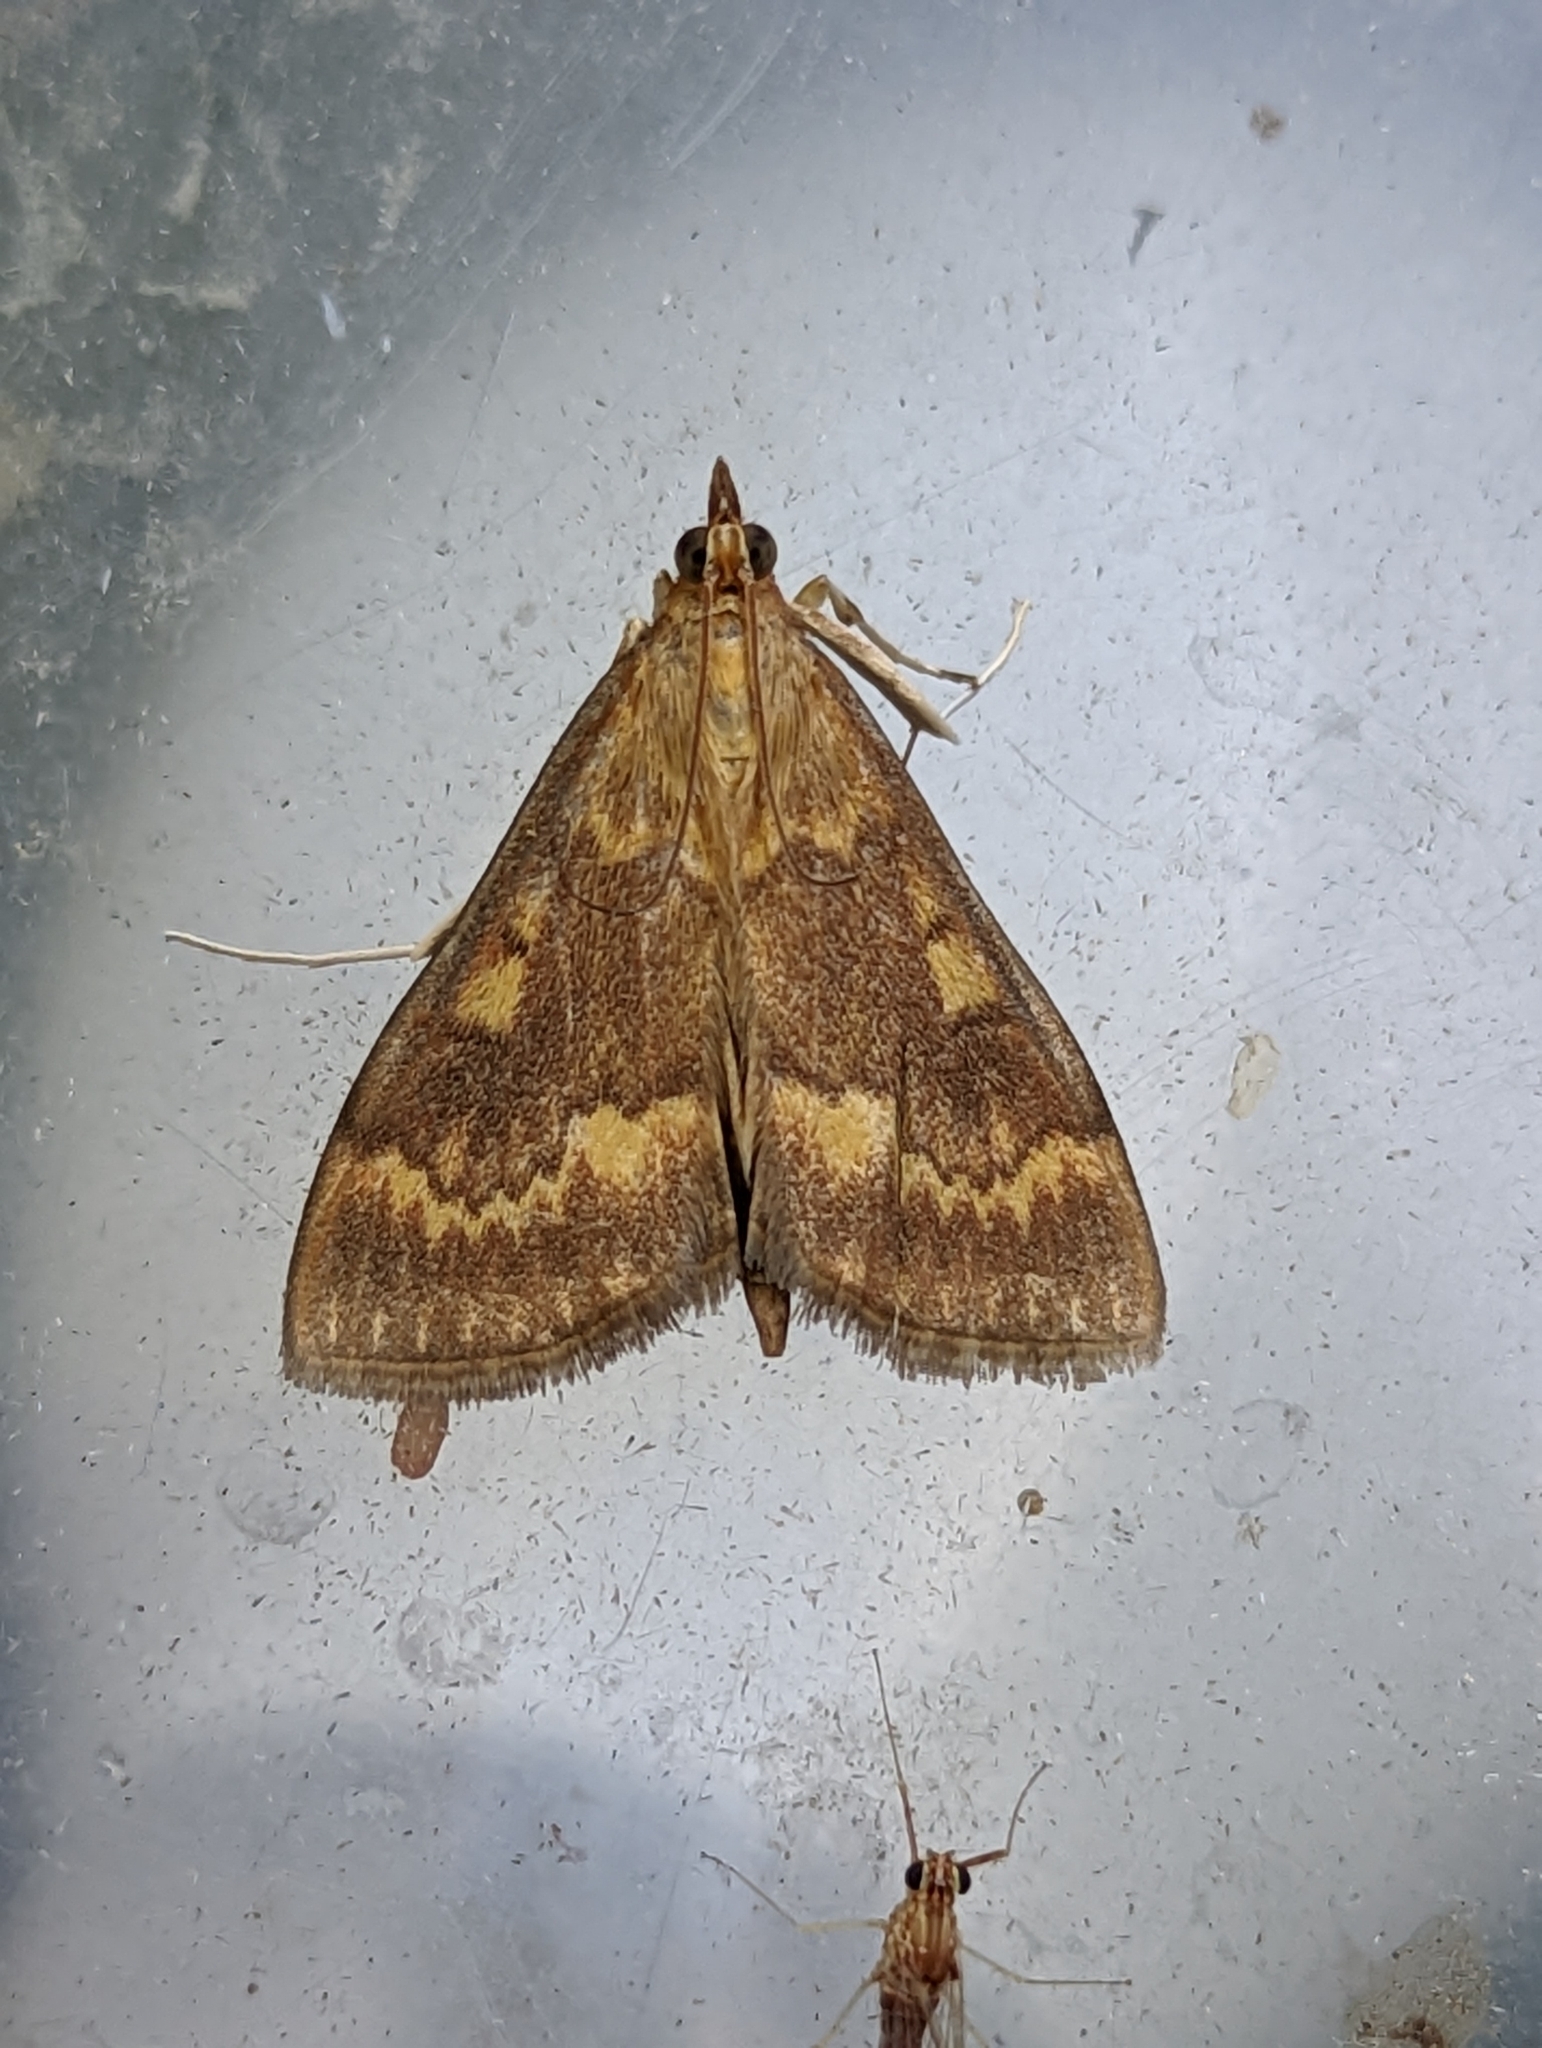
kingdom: Animalia
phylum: Arthropoda
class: Insecta
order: Lepidoptera
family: Crambidae
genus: Ostrinia
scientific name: Ostrinia nubilalis
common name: European corn borer
